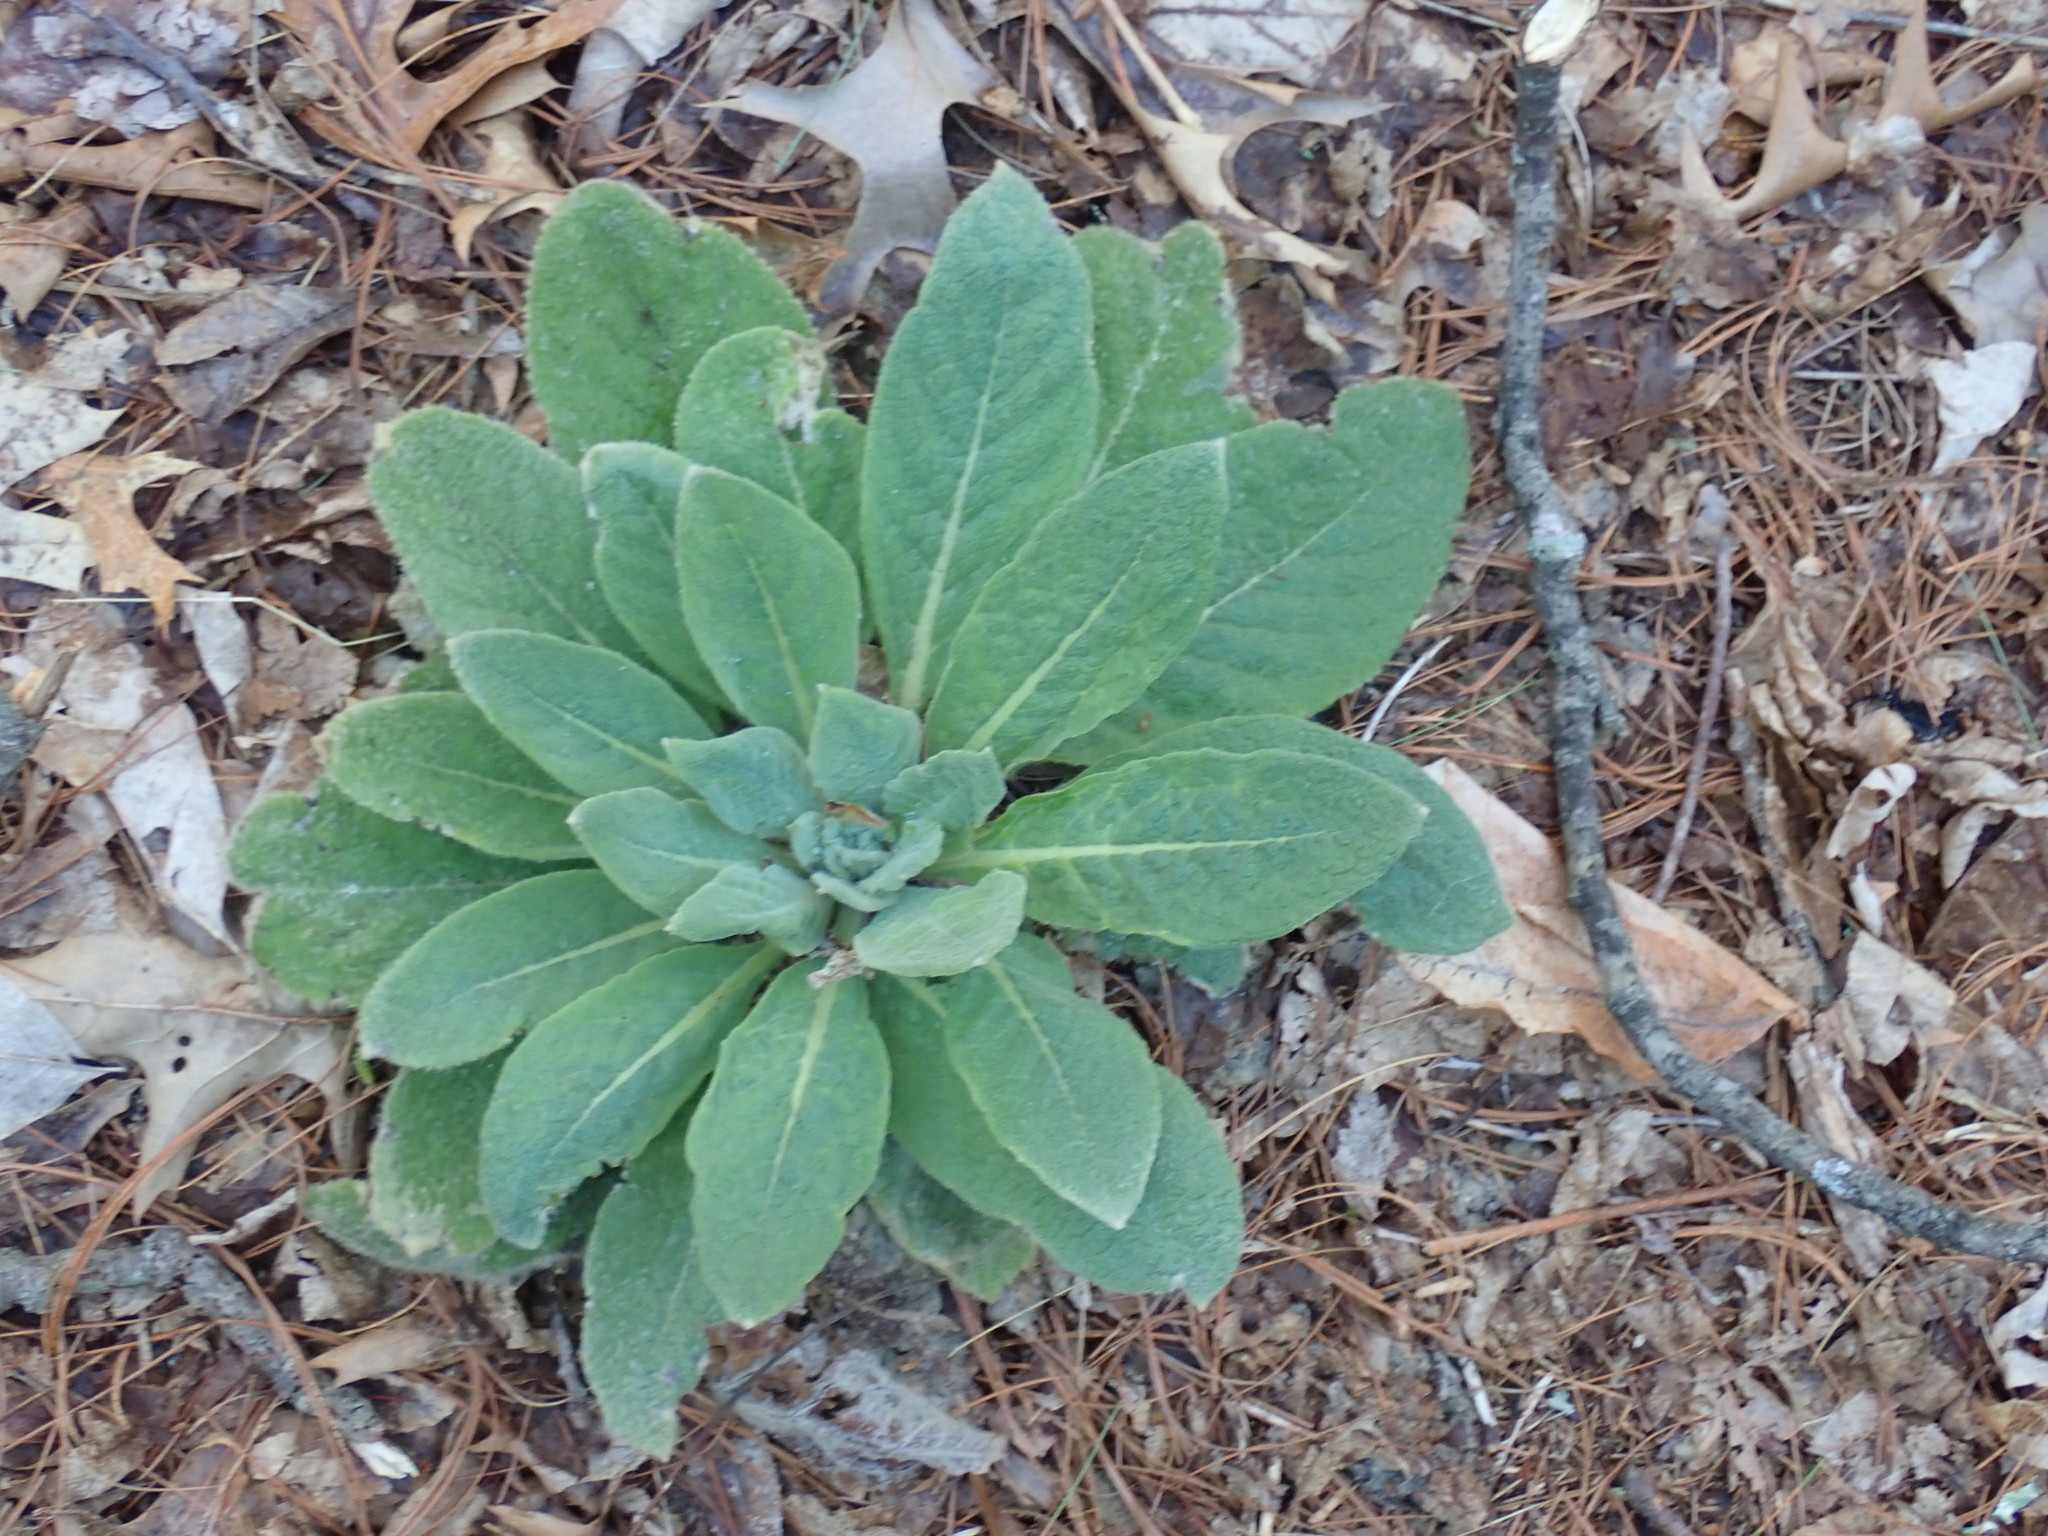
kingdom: Plantae
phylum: Tracheophyta
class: Magnoliopsida
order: Lamiales
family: Scrophulariaceae
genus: Verbascum
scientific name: Verbascum thapsus
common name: Common mullein
